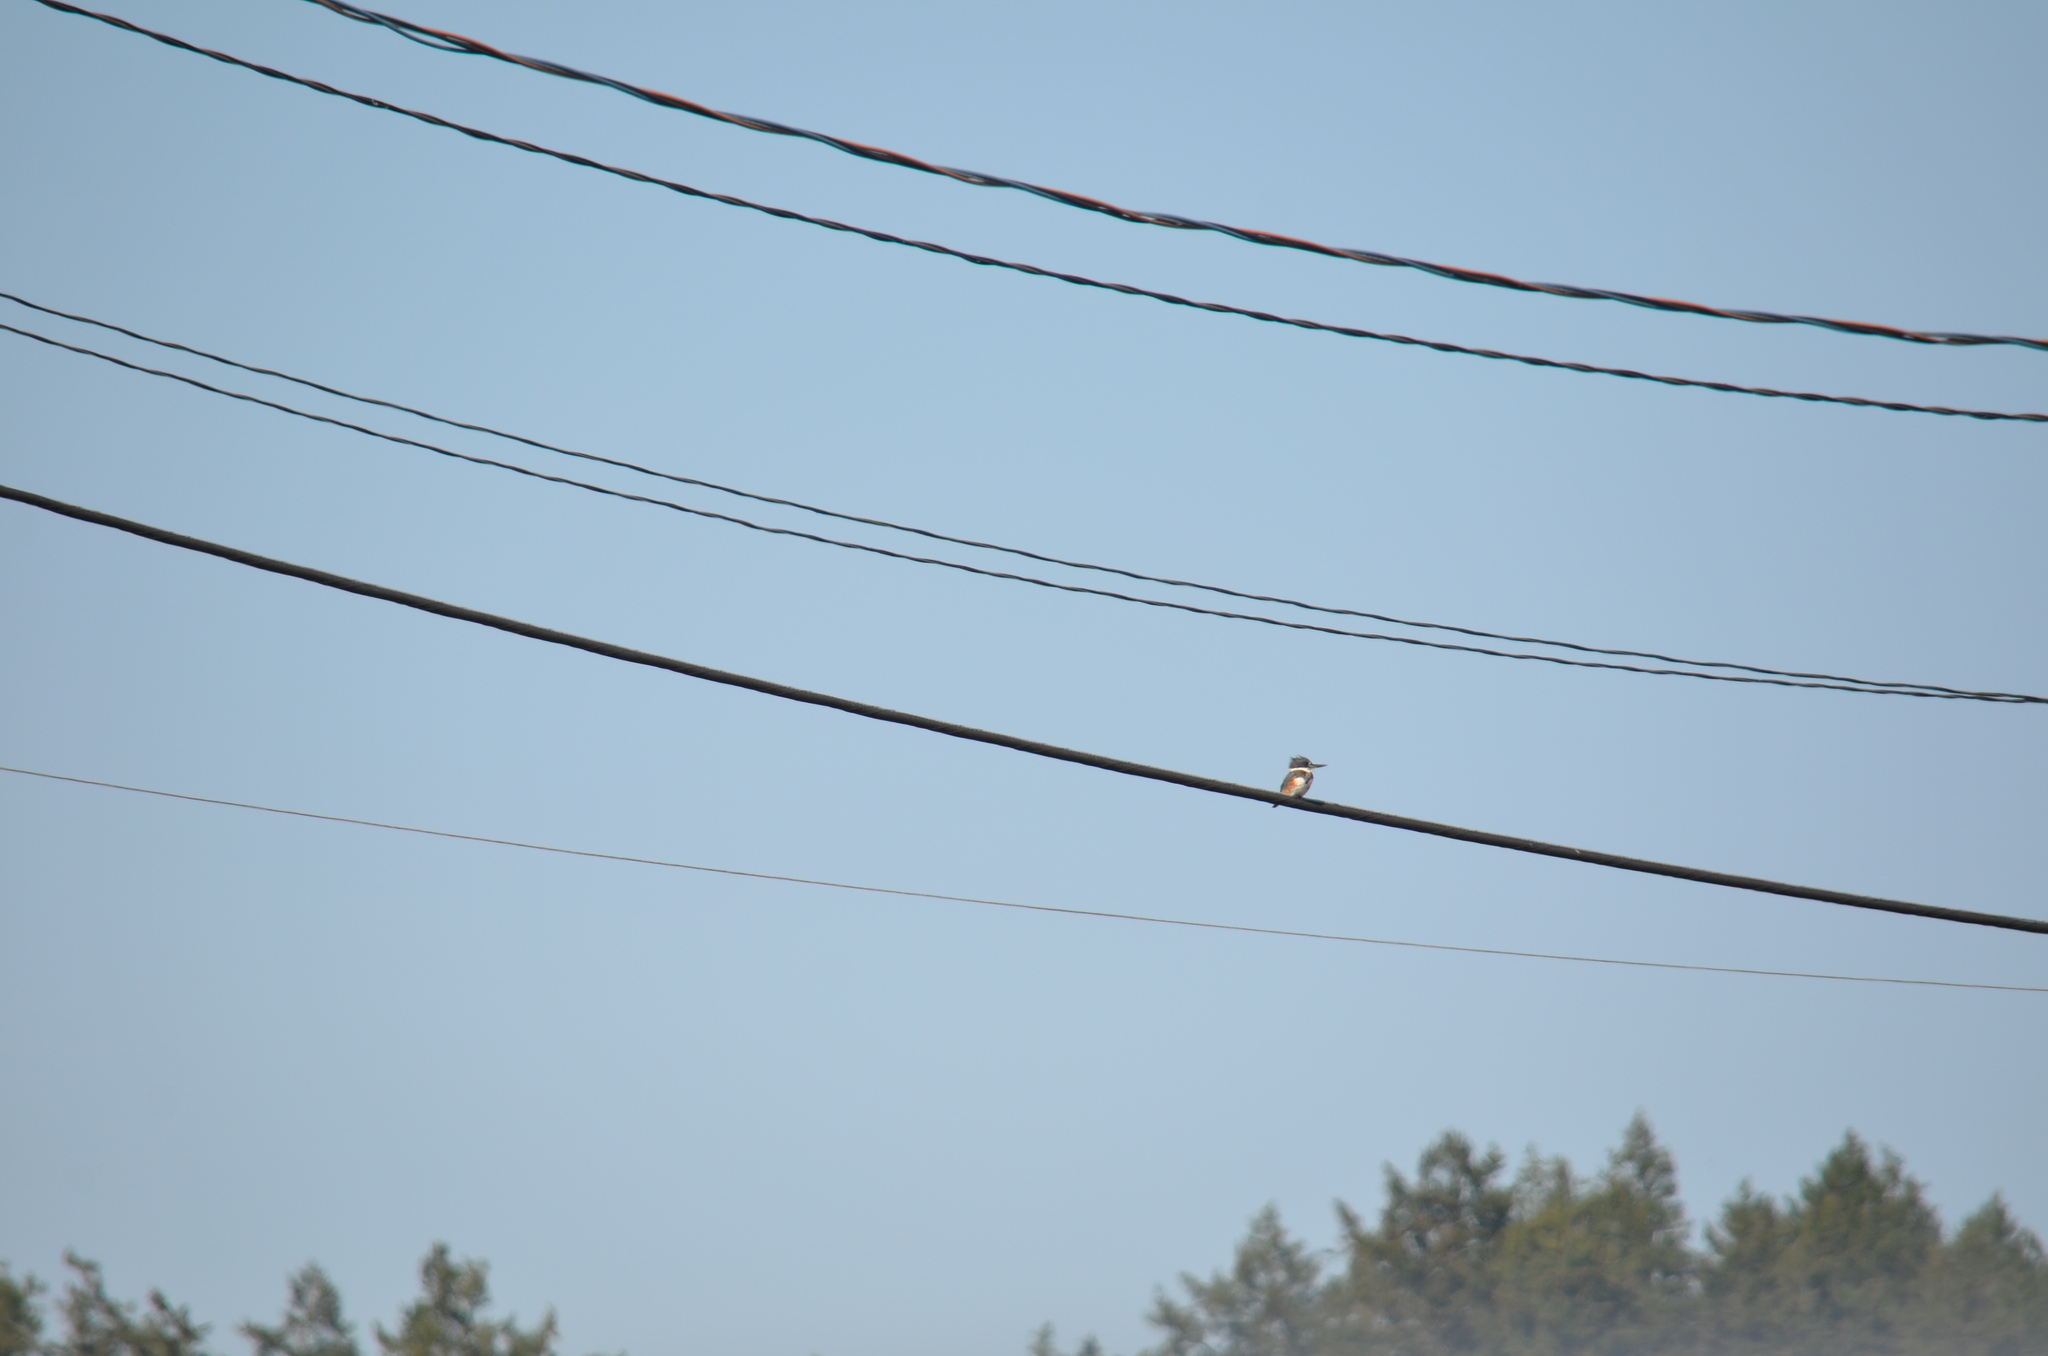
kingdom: Animalia
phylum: Chordata
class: Aves
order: Coraciiformes
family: Alcedinidae
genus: Megaceryle
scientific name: Megaceryle alcyon
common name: Belted kingfisher
